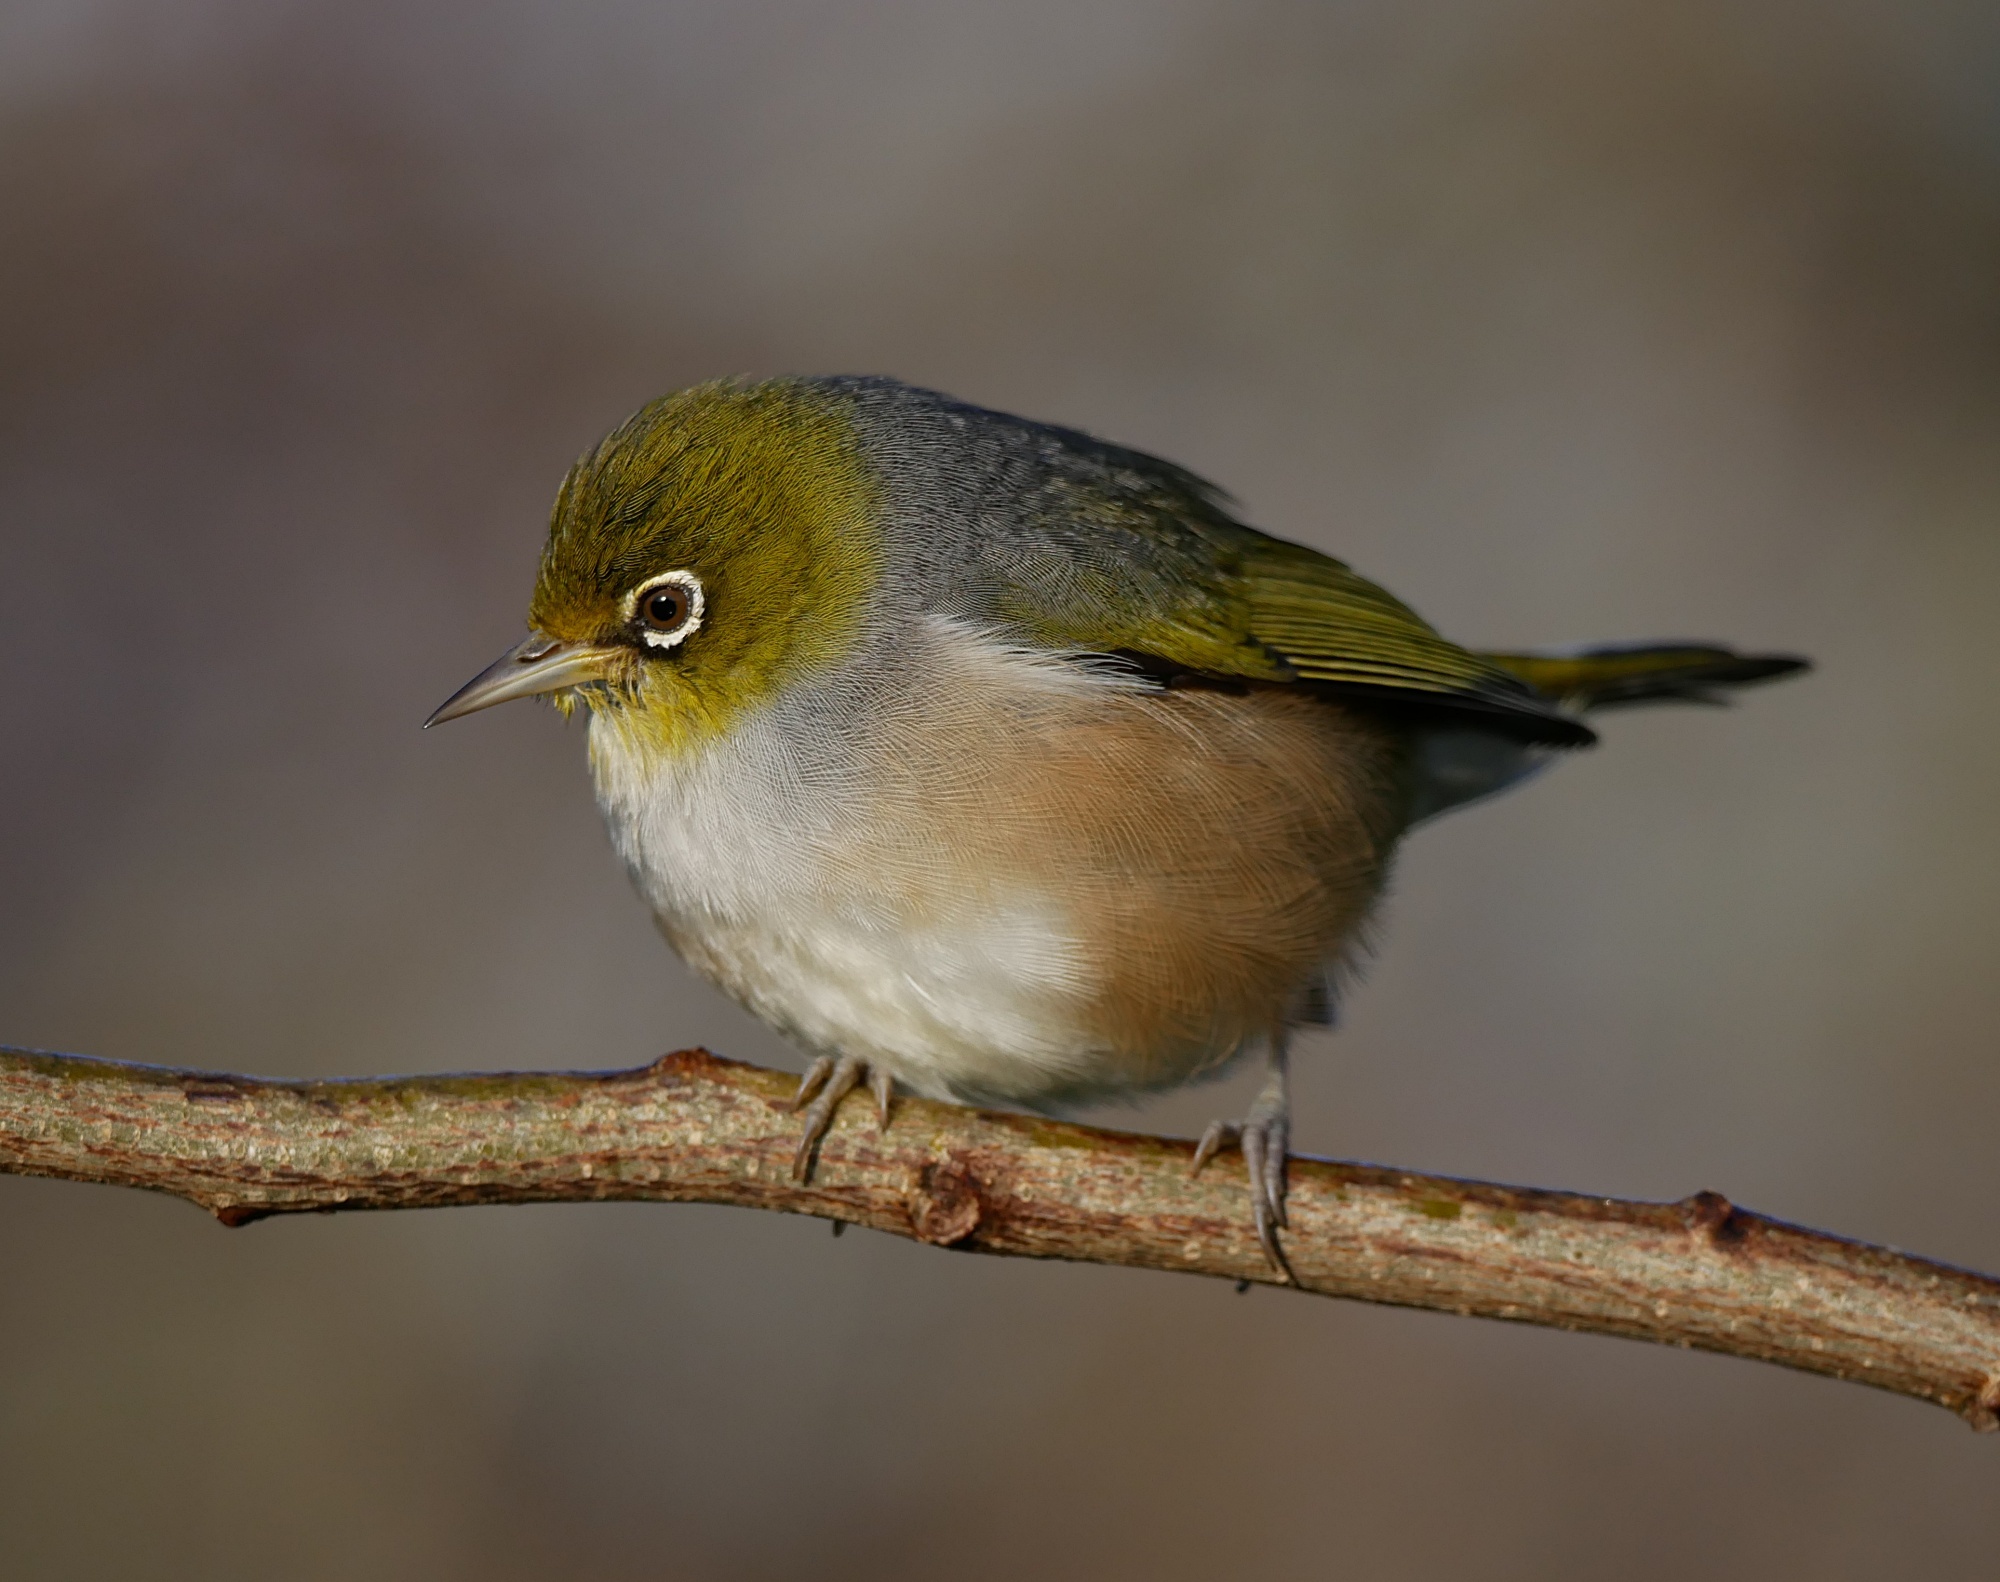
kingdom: Animalia
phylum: Chordata
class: Aves
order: Passeriformes
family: Zosteropidae
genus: Zosterops
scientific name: Zosterops lateralis
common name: Silvereye
